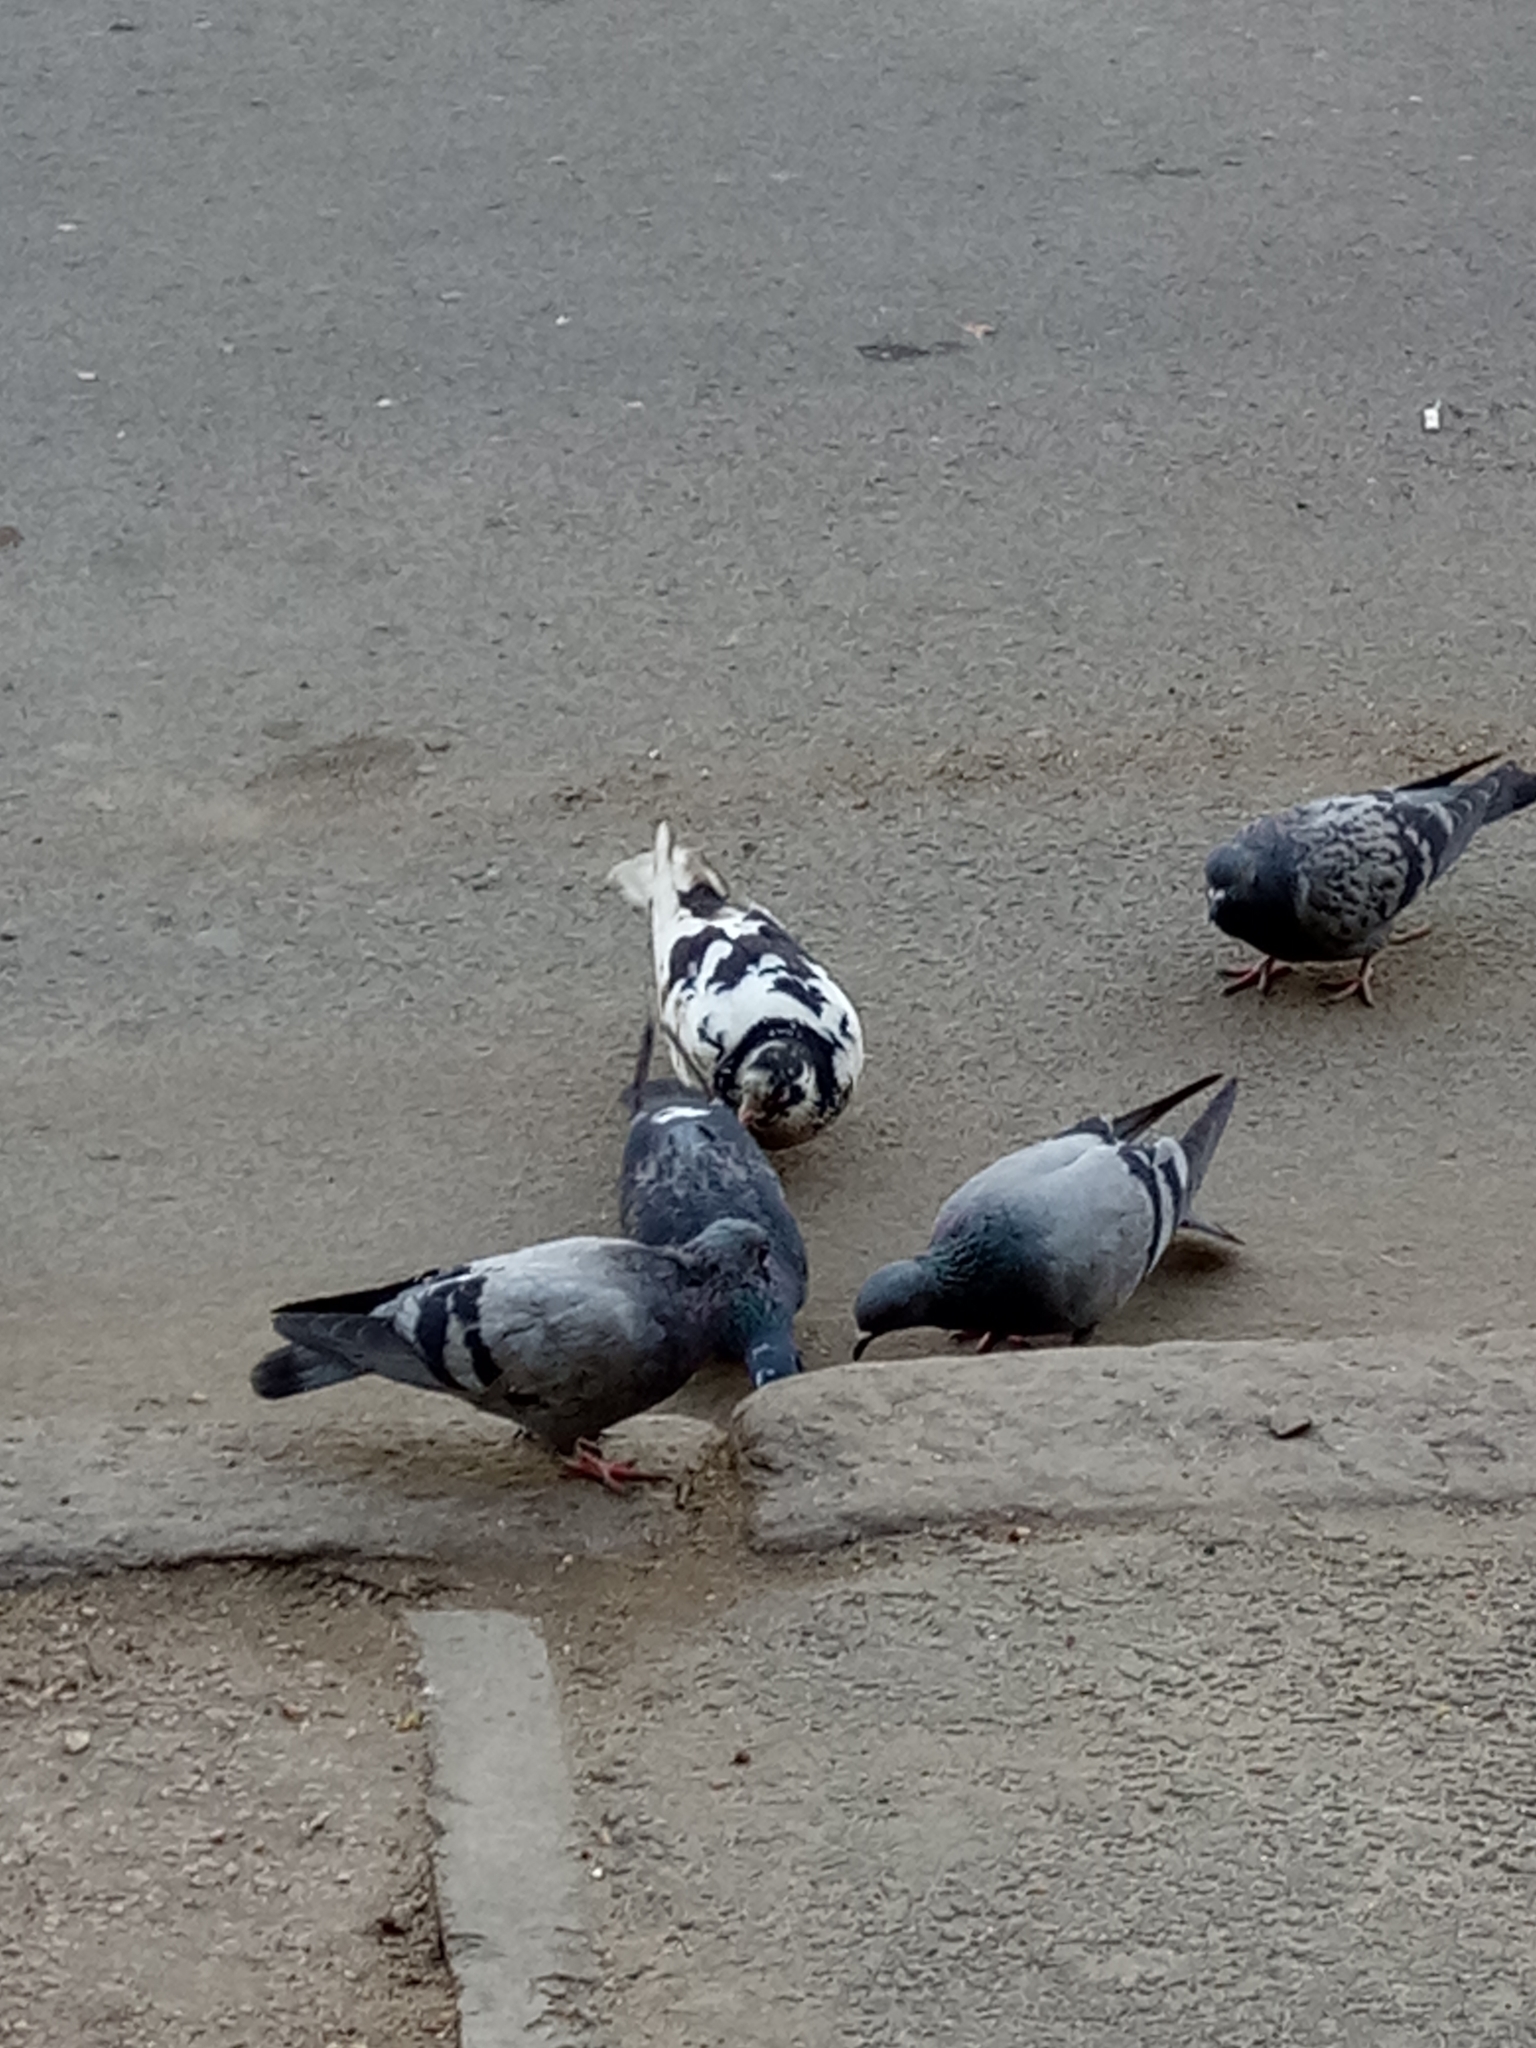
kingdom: Animalia
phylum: Chordata
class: Aves
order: Columbiformes
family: Columbidae
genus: Columba
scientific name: Columba livia
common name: Rock pigeon
